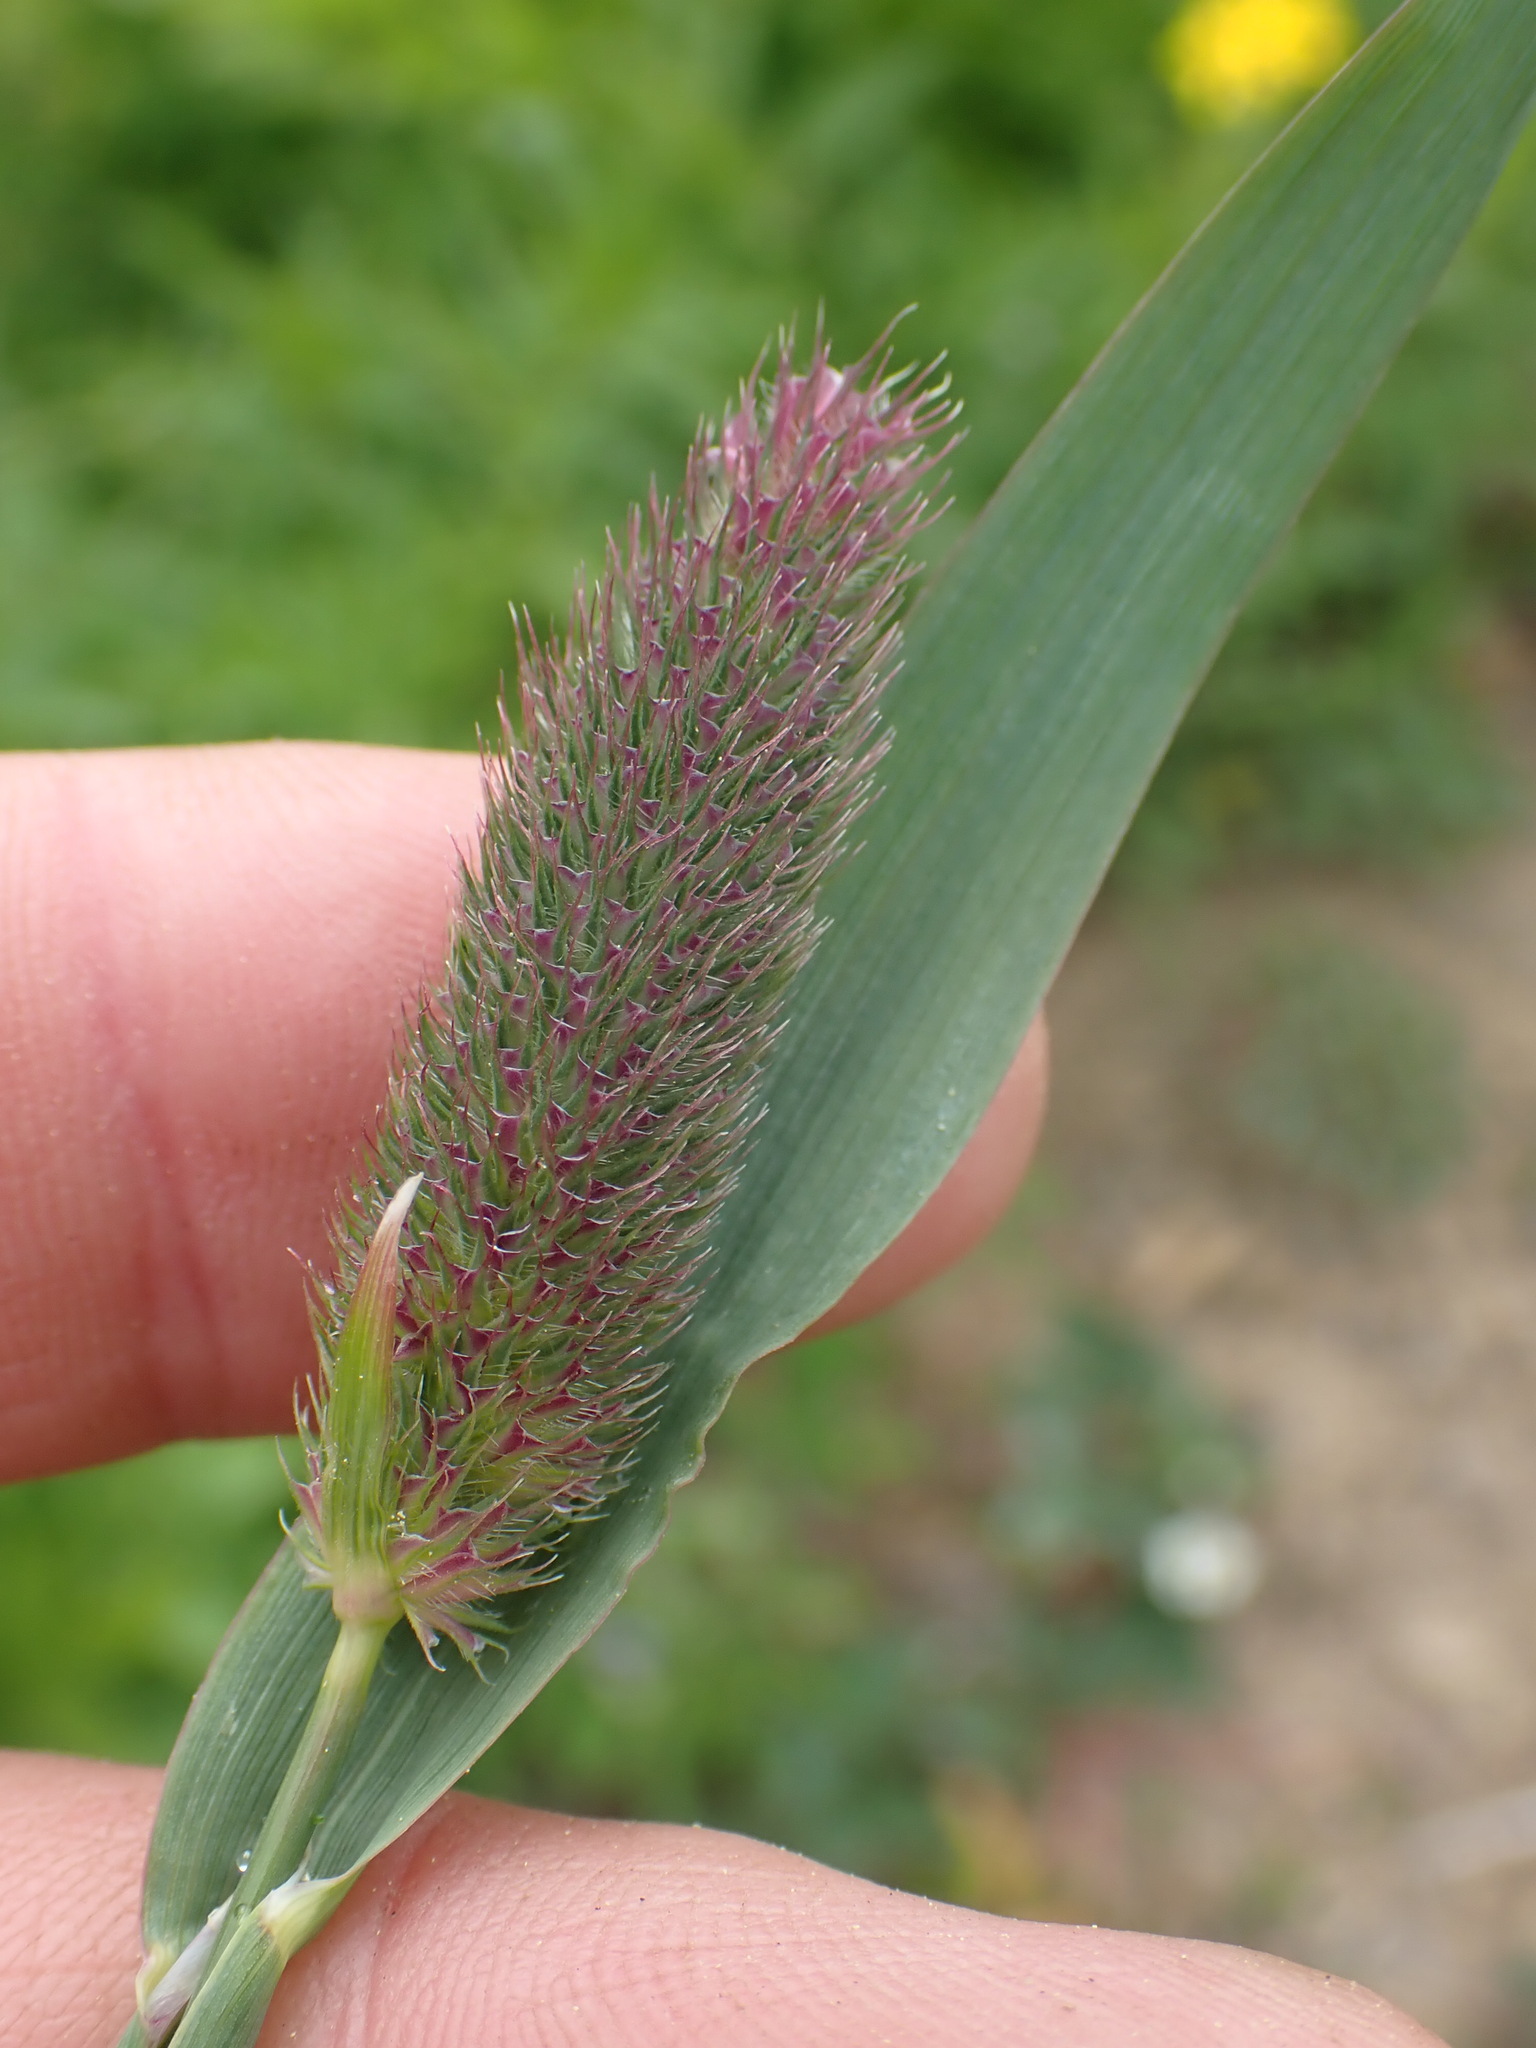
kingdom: Plantae
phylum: Tracheophyta
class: Liliopsida
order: Poales
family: Poaceae
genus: Phleum
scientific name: Phleum alpinum
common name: Alpine cat's-tail
